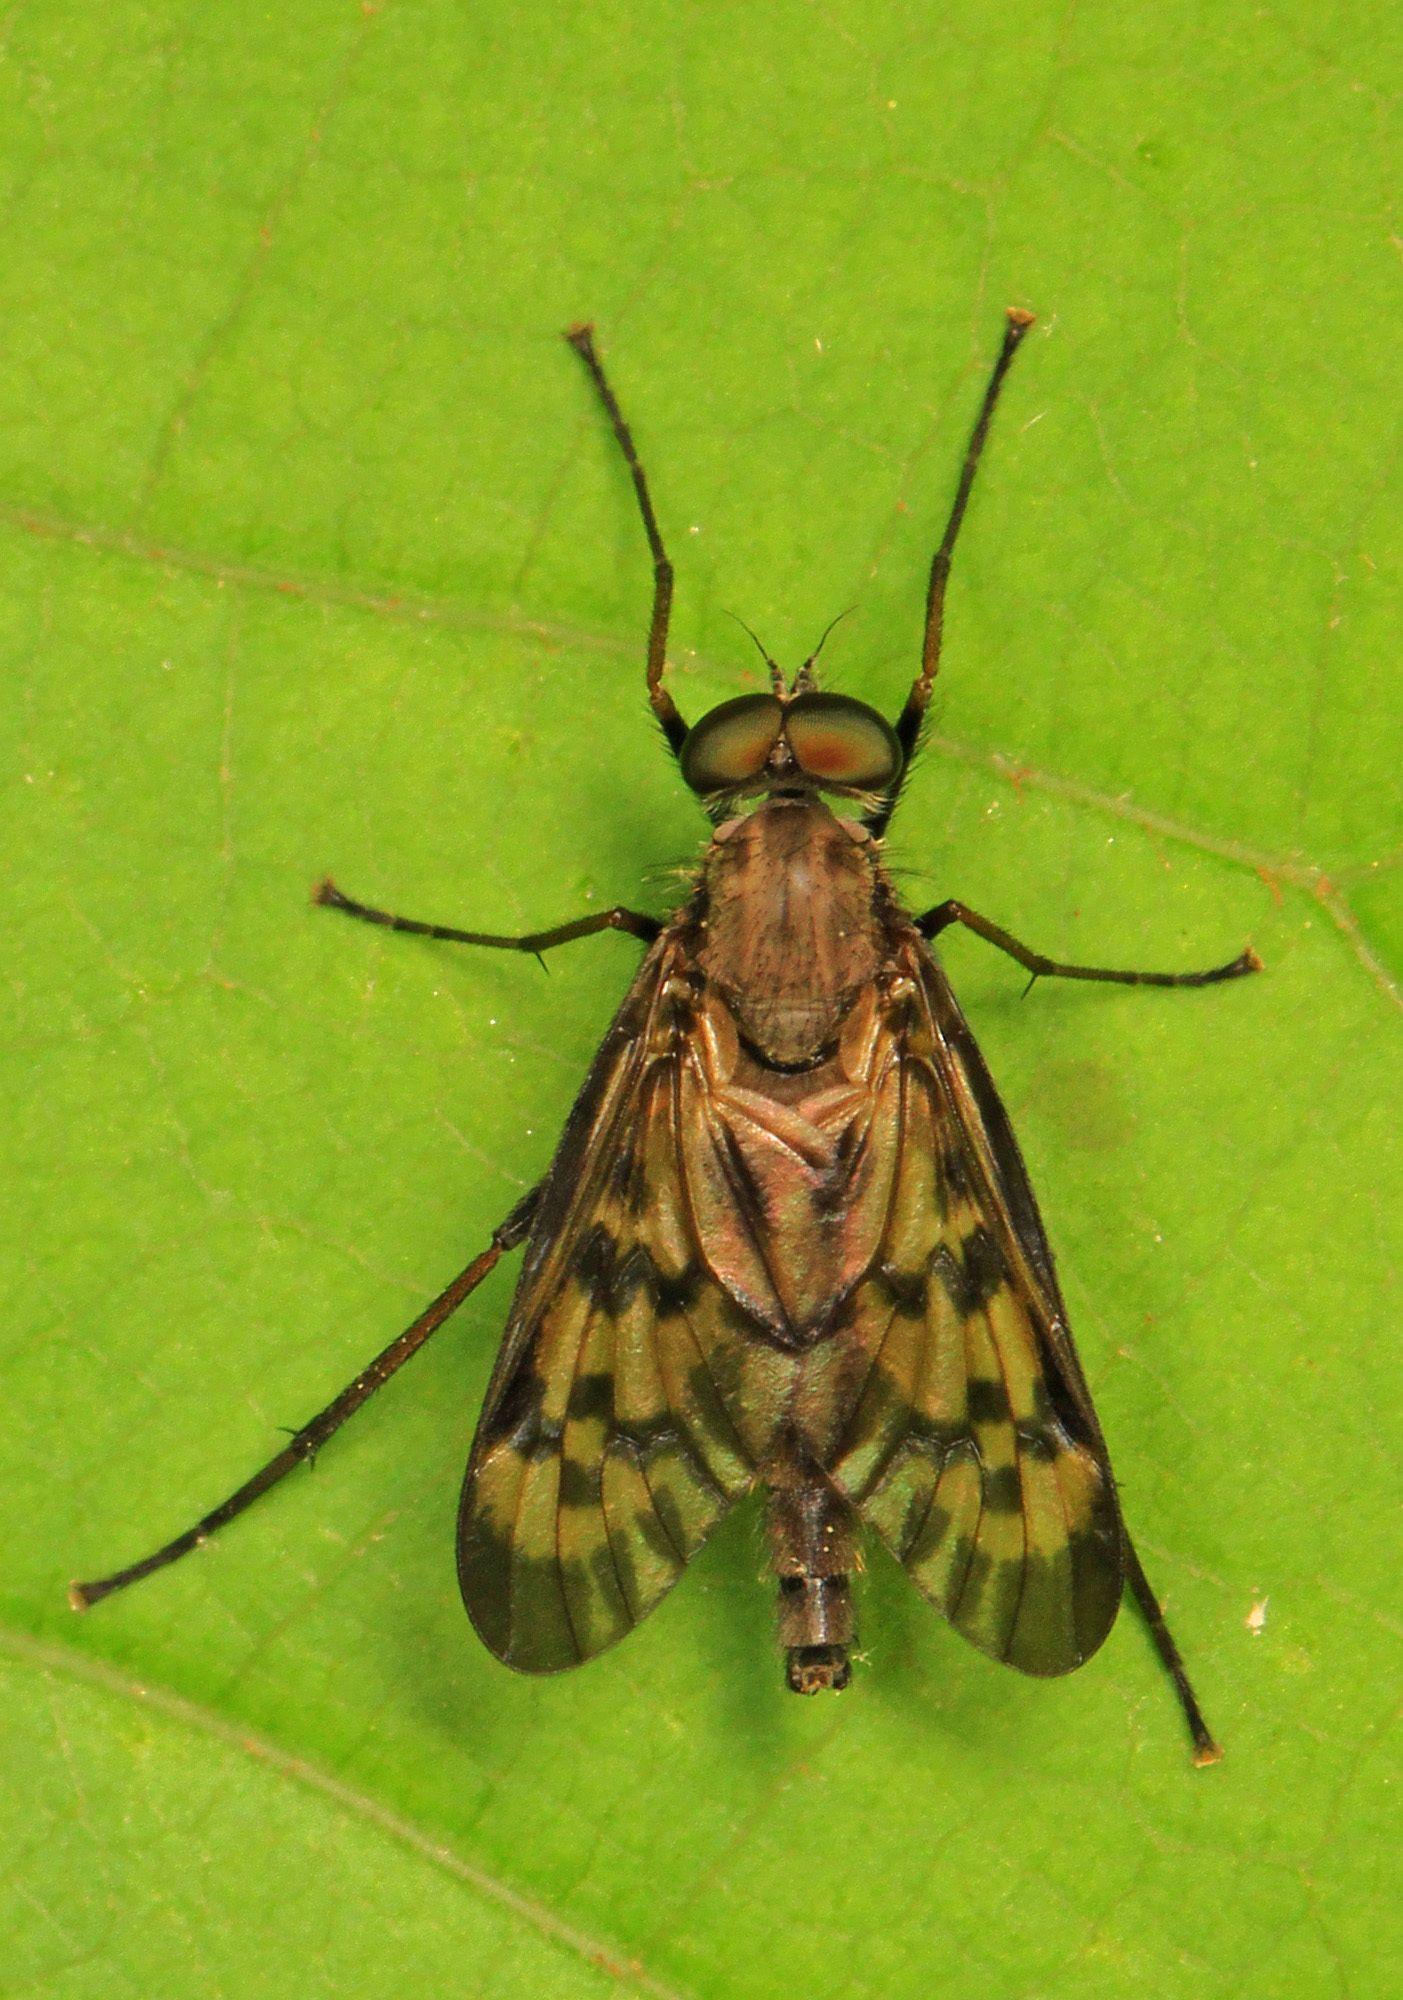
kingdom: Animalia
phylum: Arthropoda
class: Insecta
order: Diptera
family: Rhagionidae
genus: Rhagio
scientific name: Rhagio punctipennis
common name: Lesser variegated snipe fly
